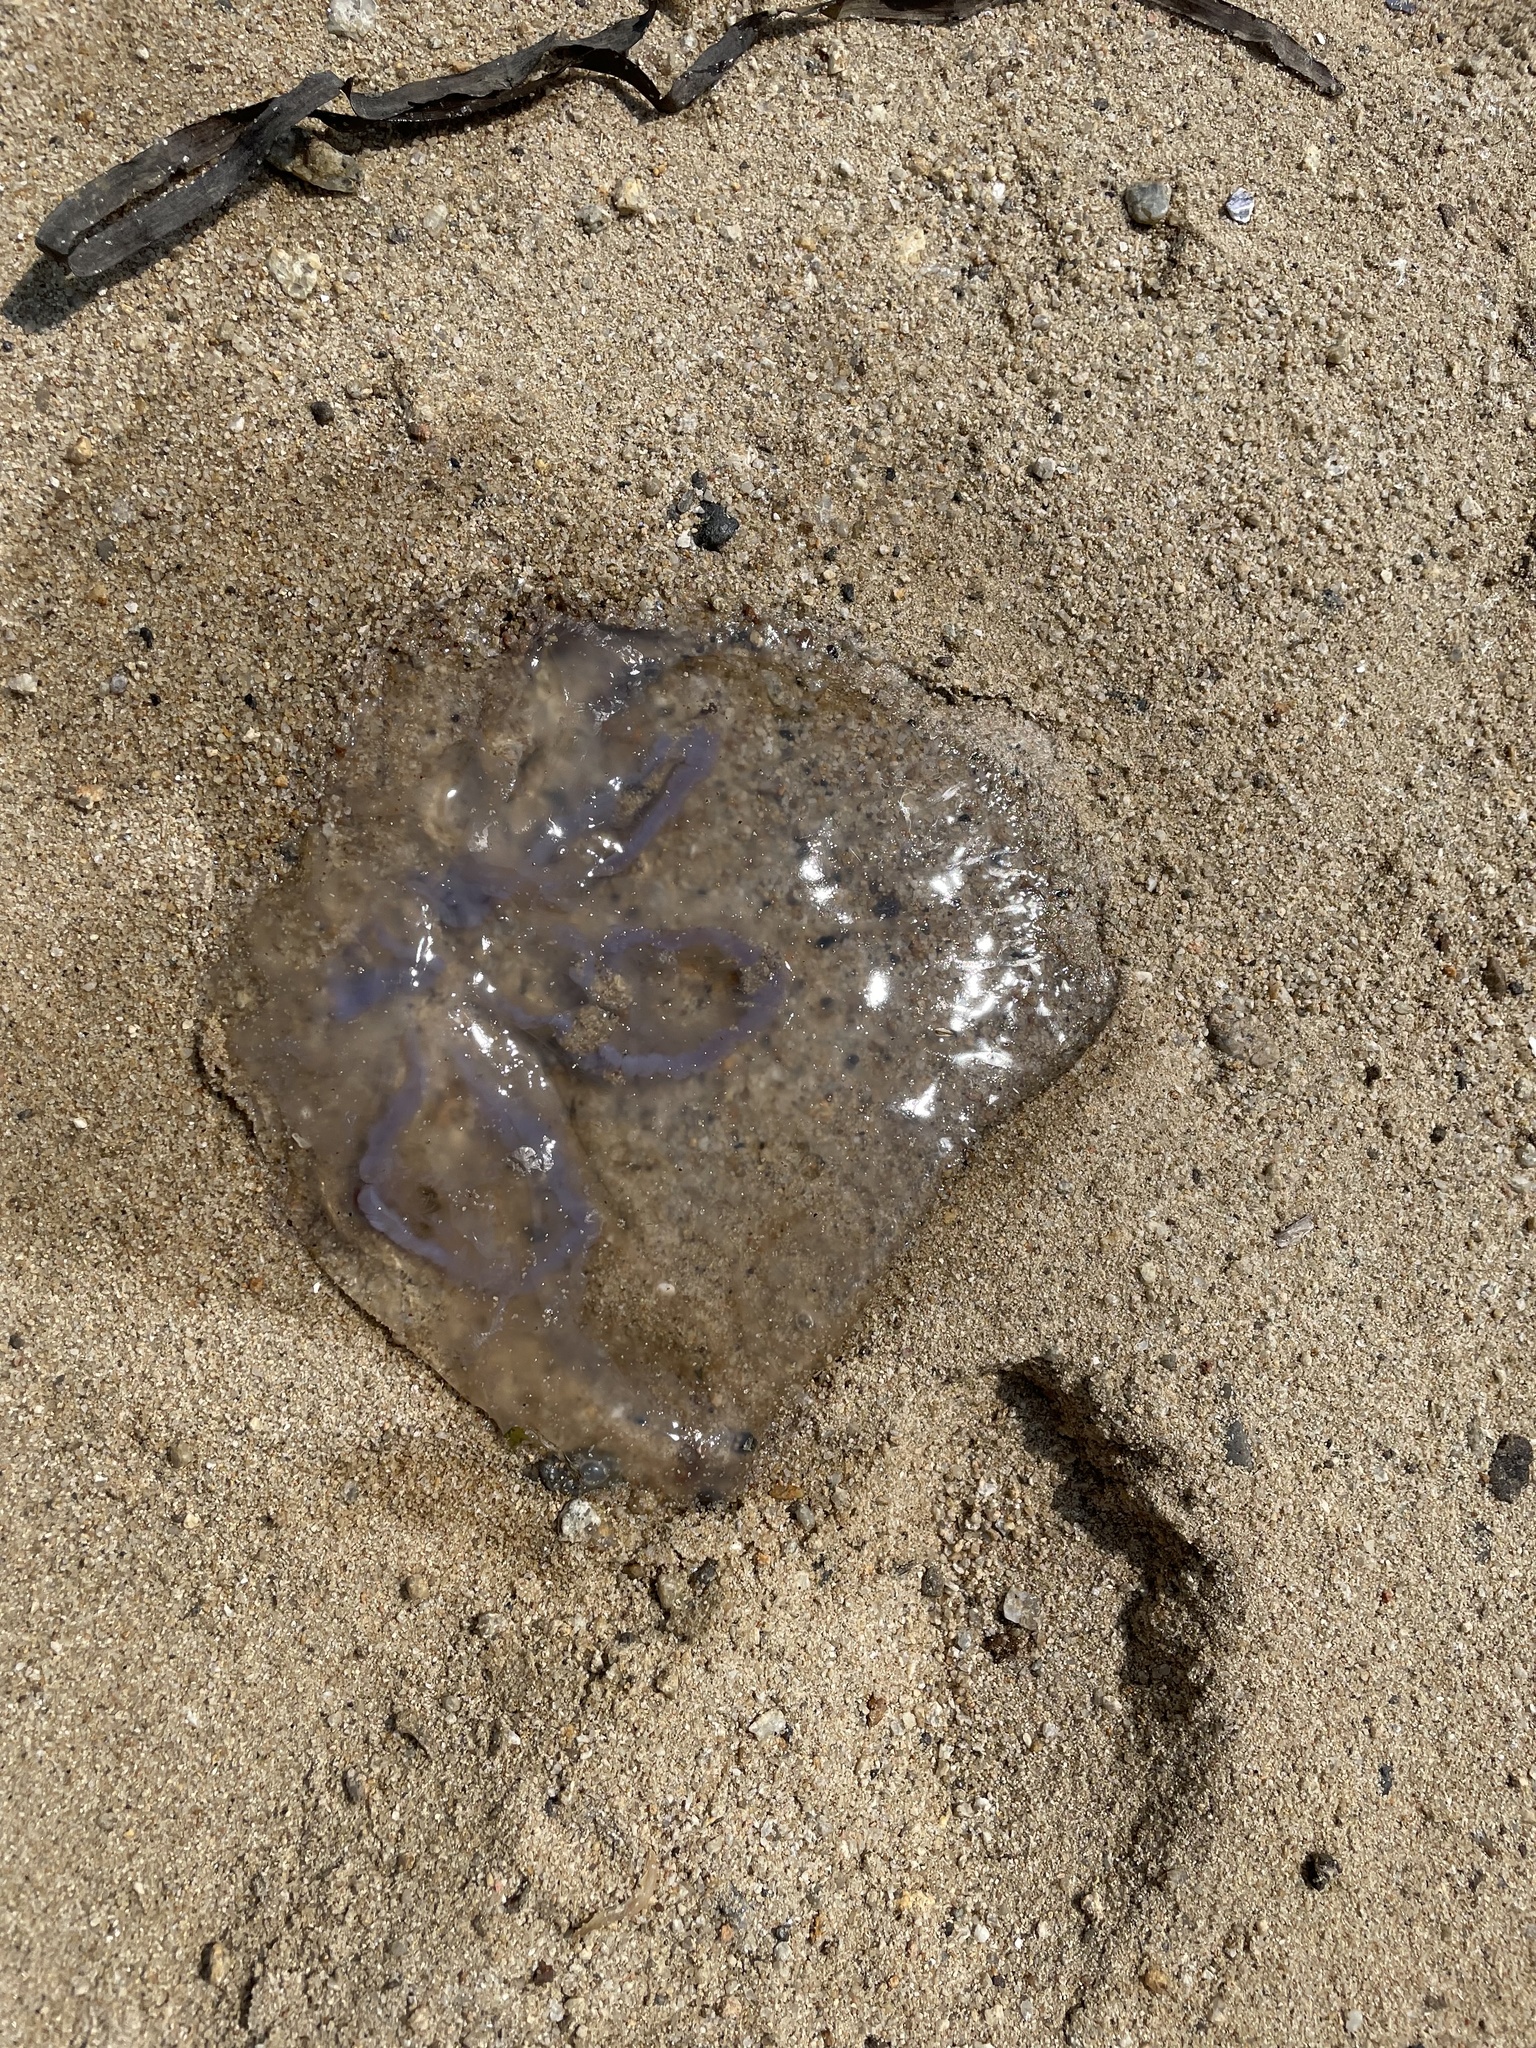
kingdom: Animalia
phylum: Cnidaria
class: Scyphozoa
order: Semaeostomeae
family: Ulmaridae
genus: Aurelia
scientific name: Aurelia labiata
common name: Pacific moon jelly
